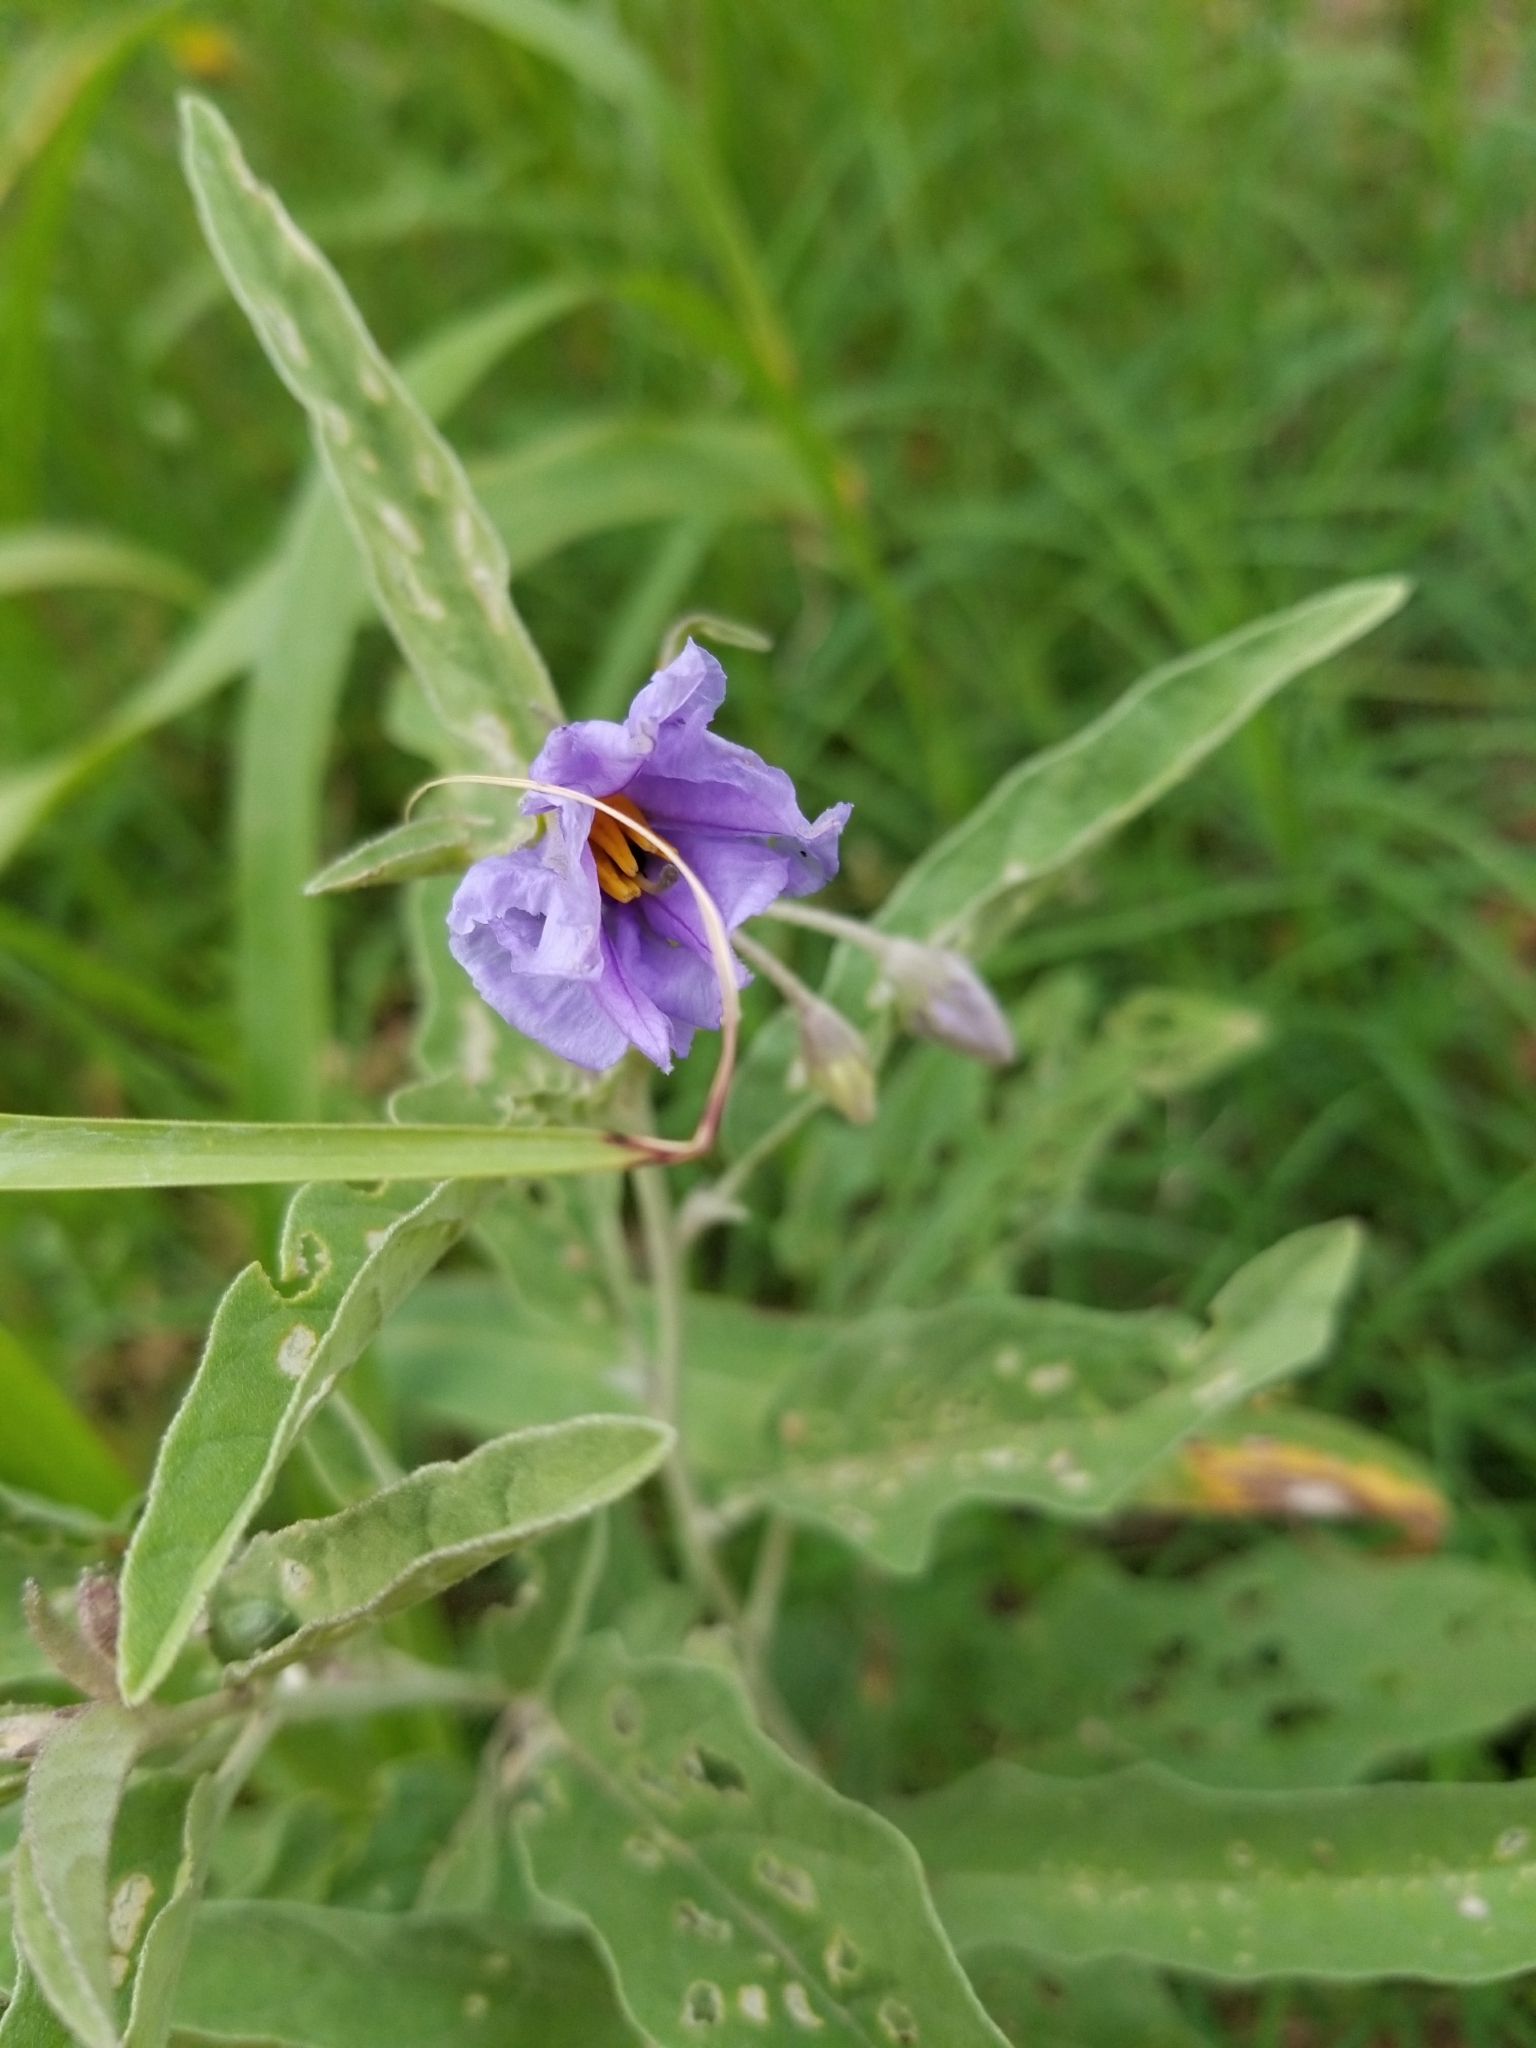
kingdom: Plantae
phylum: Tracheophyta
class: Magnoliopsida
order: Solanales
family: Solanaceae
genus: Solanum
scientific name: Solanum elaeagnifolium
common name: Silverleaf nightshade
